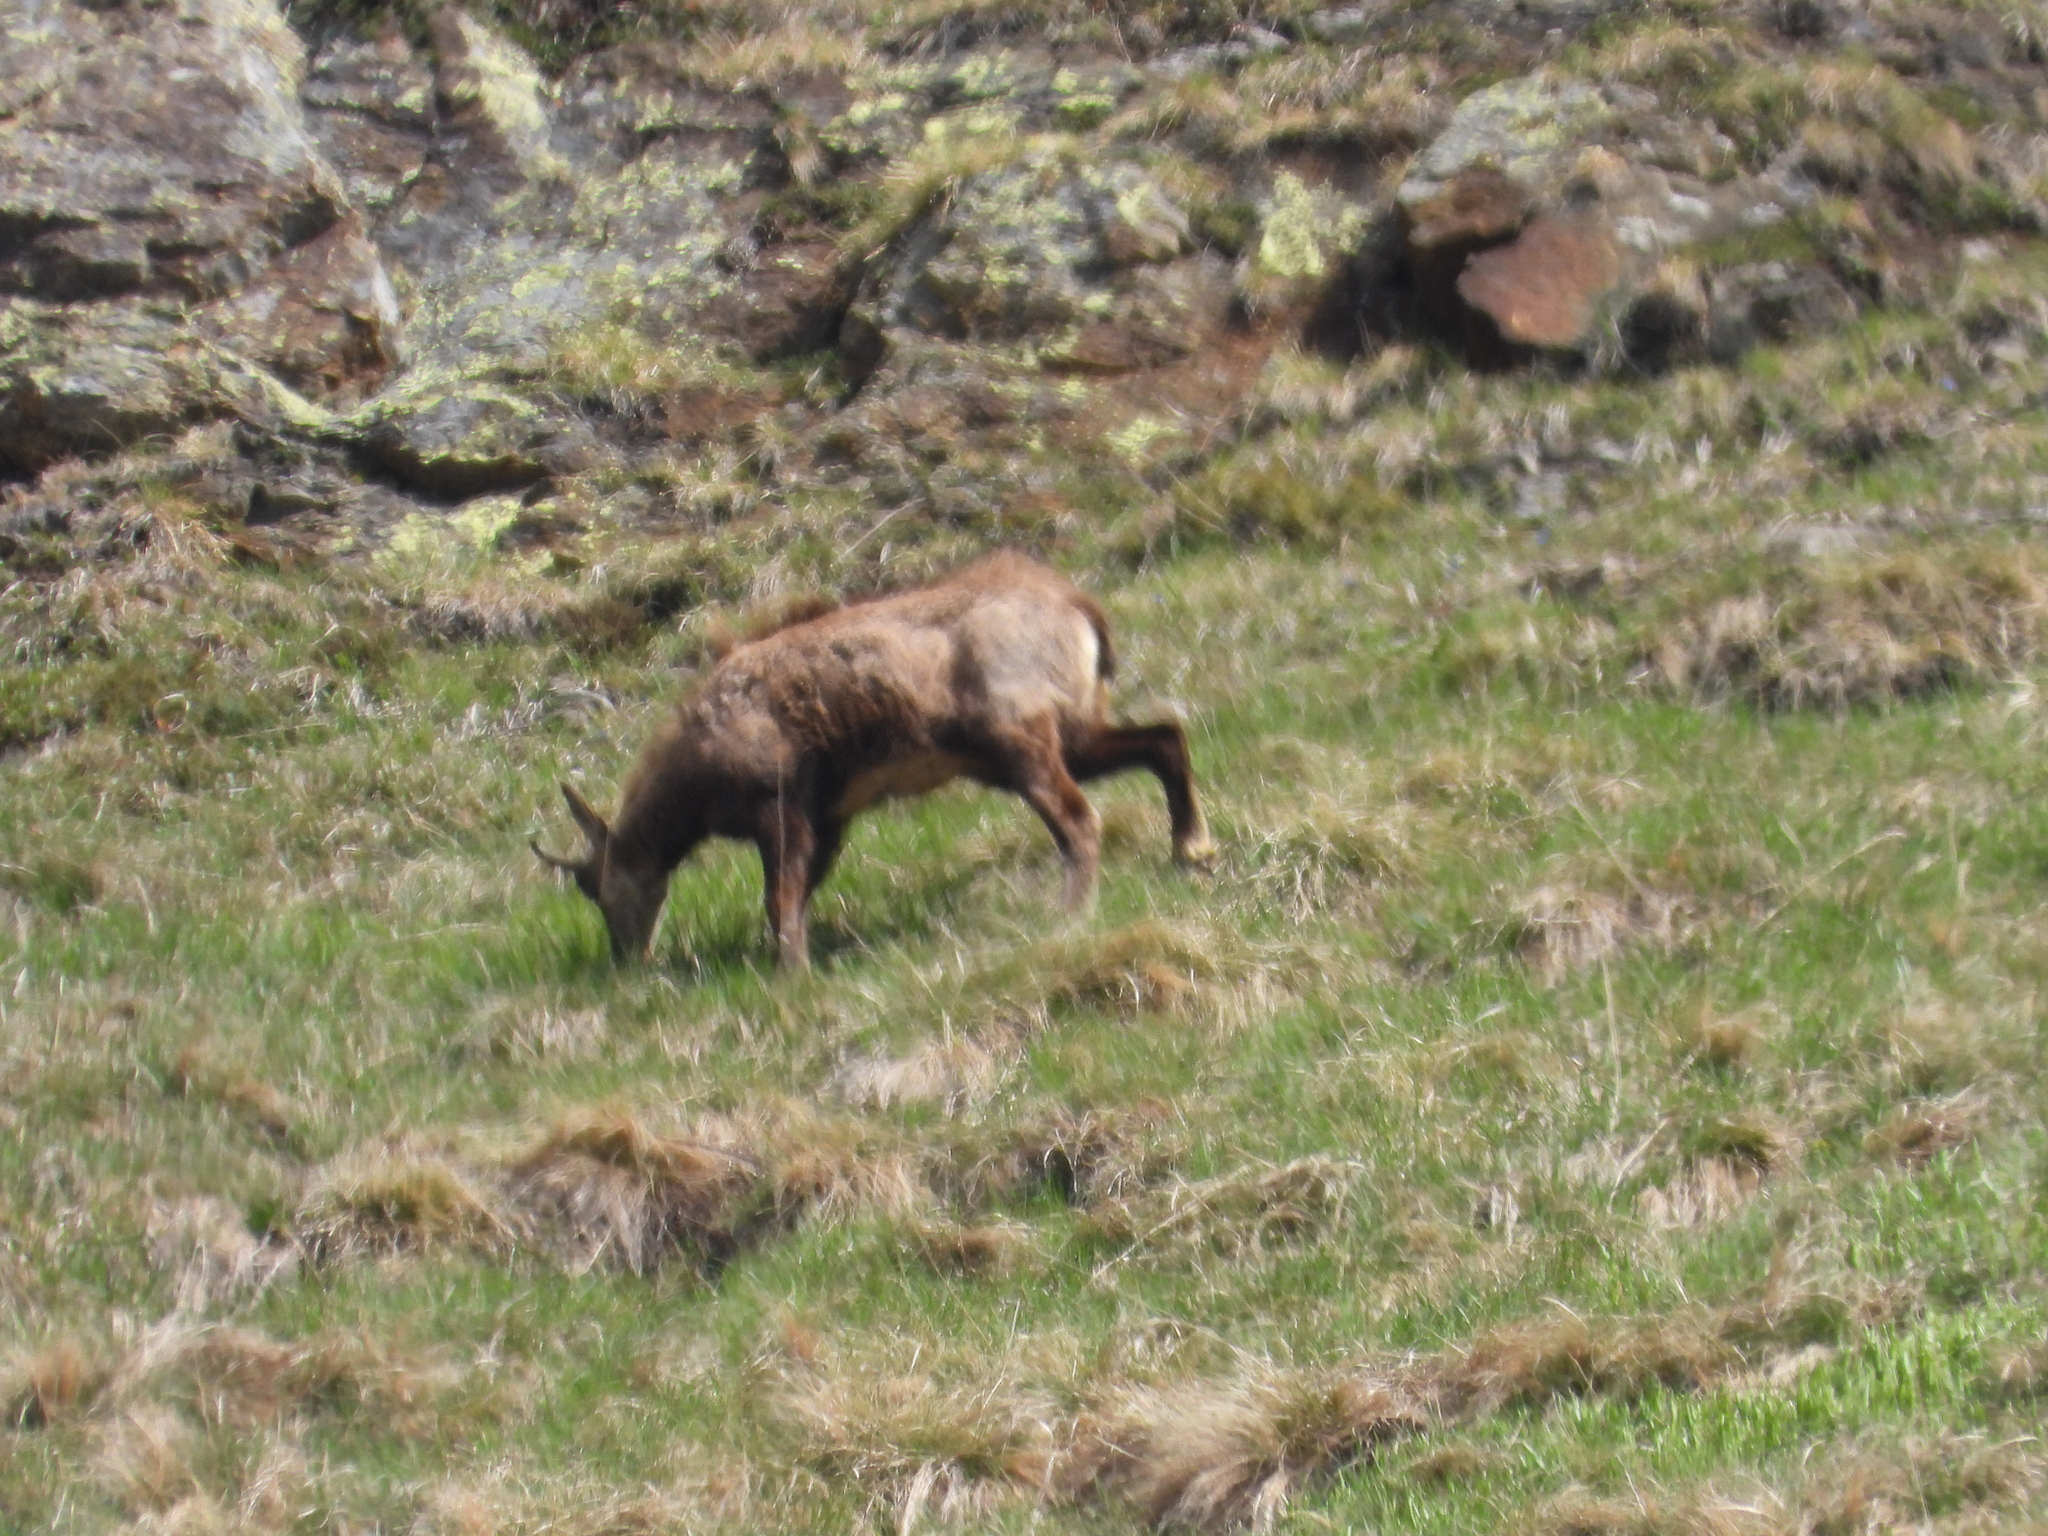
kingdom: Animalia
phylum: Chordata
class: Mammalia
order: Artiodactyla
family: Bovidae
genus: Rupicapra
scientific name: Rupicapra rupicapra
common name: Chamois
